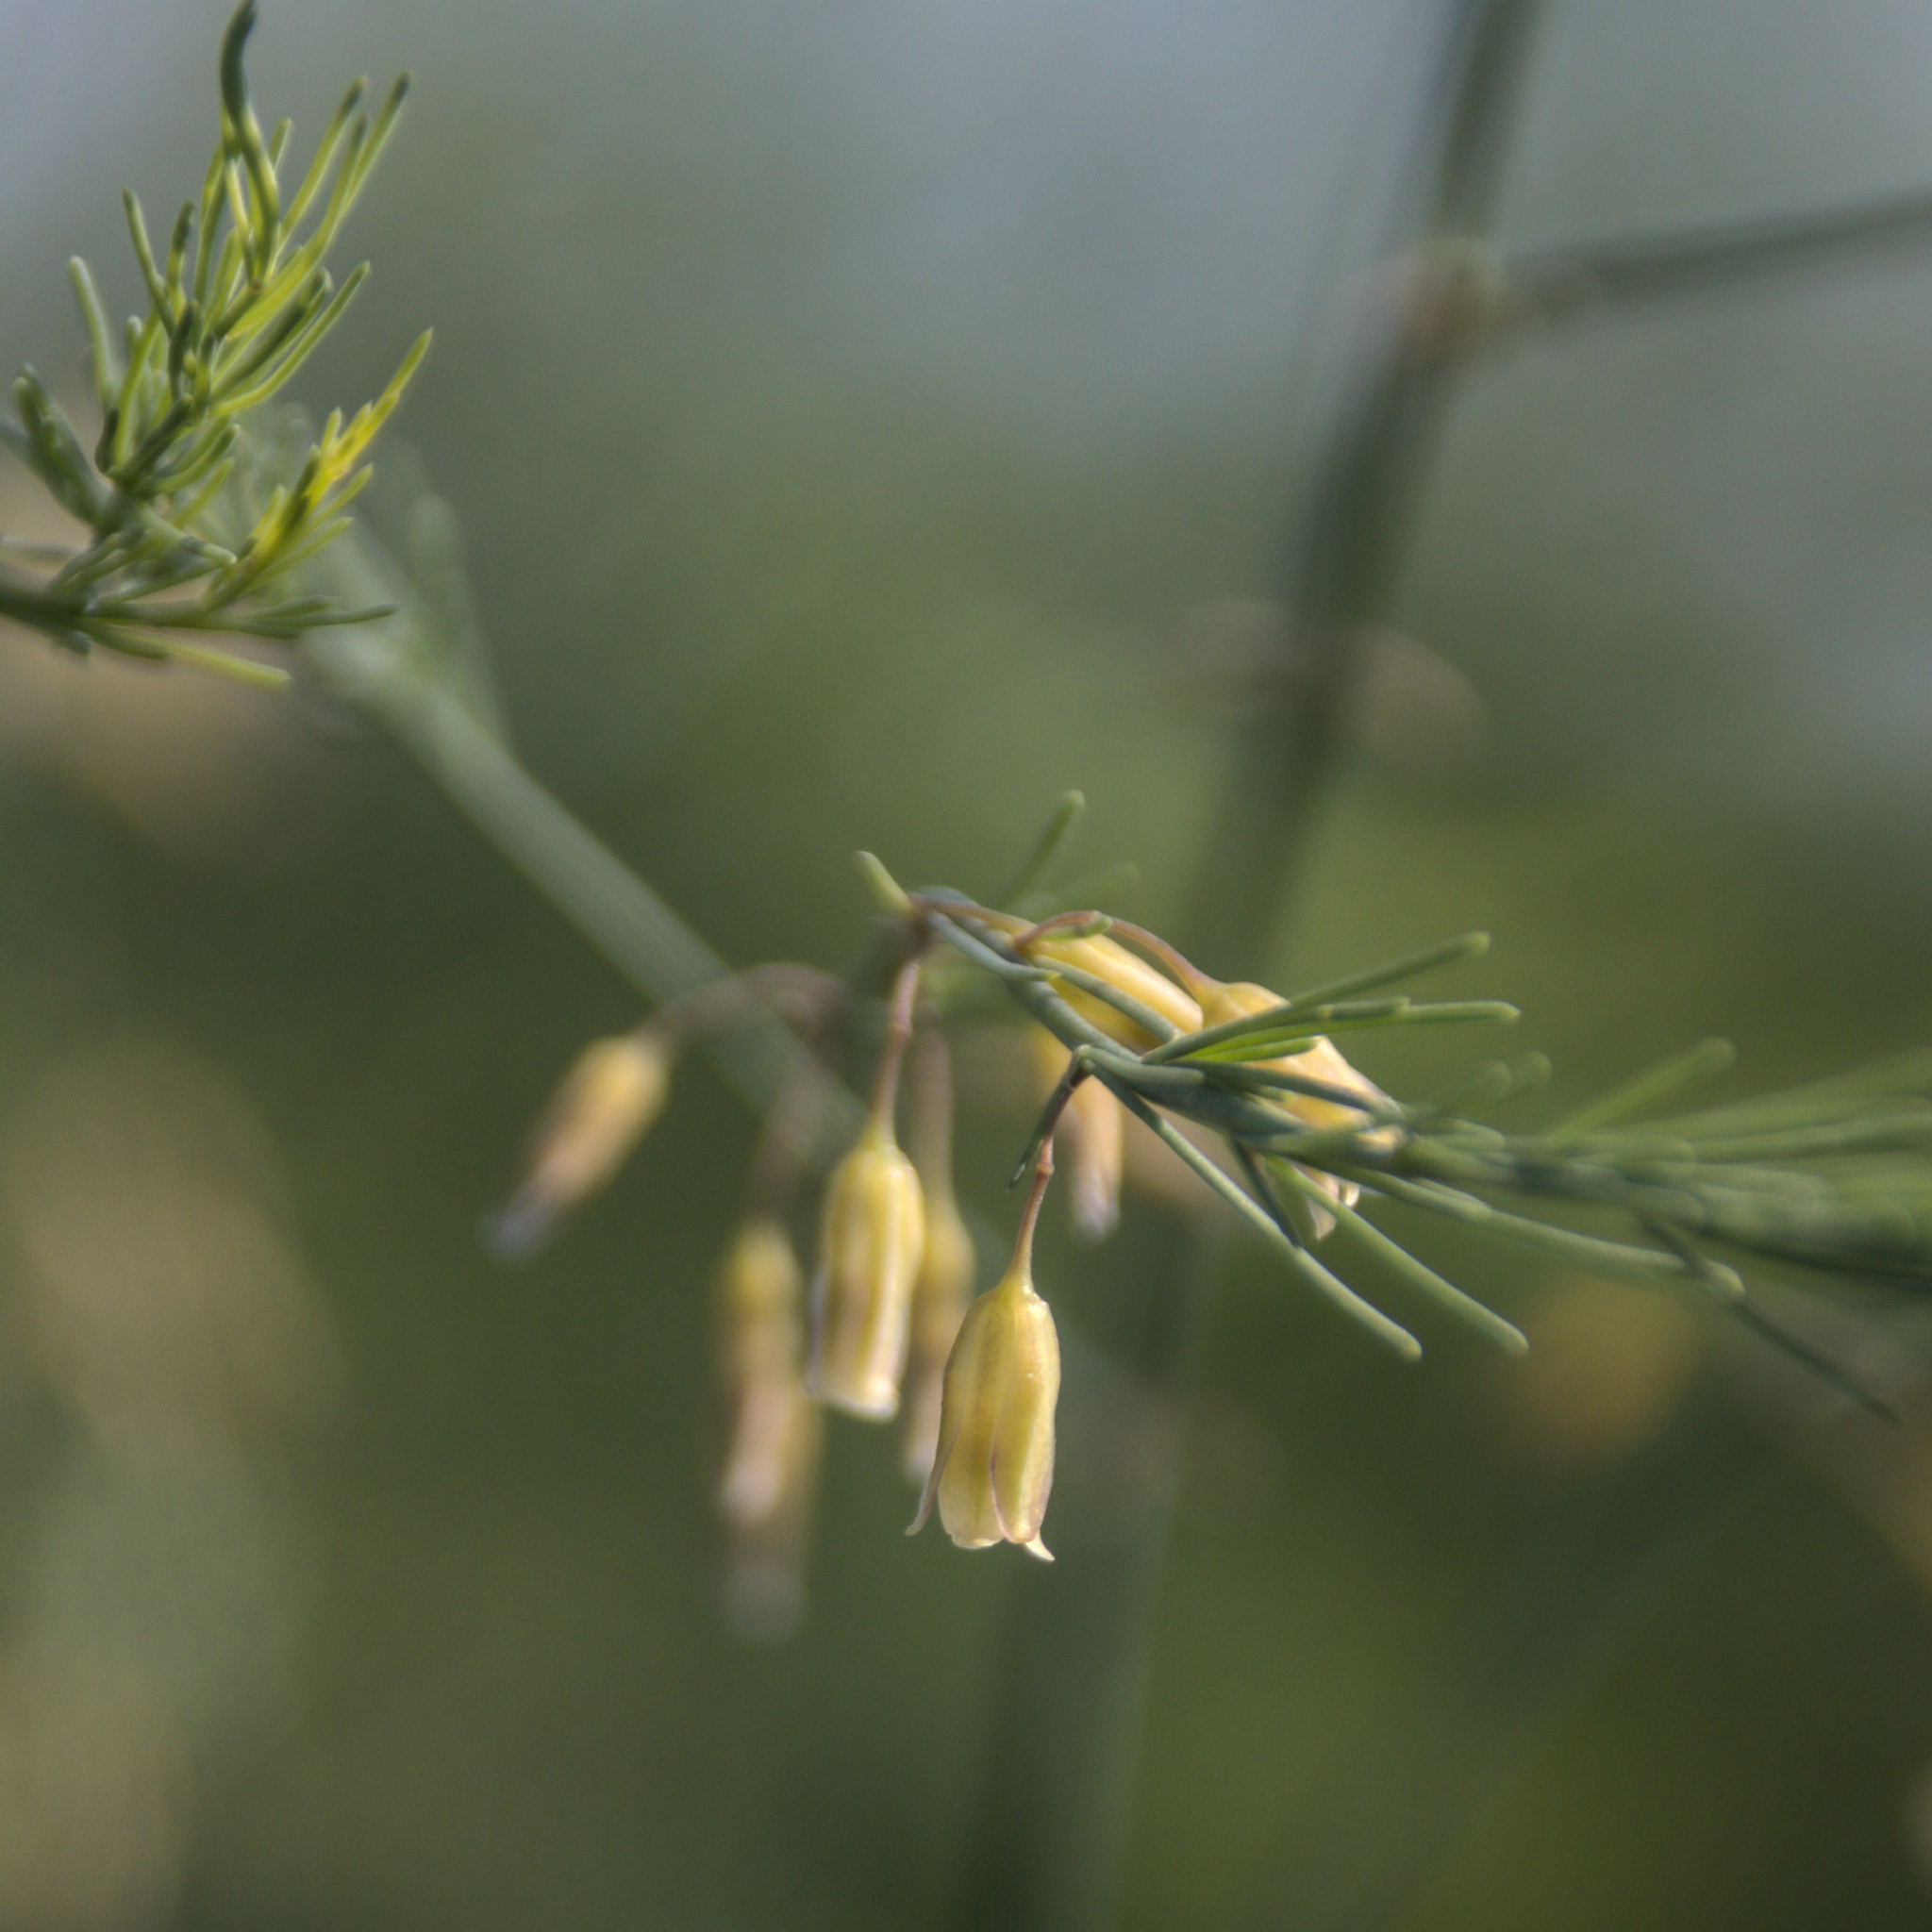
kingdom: Plantae
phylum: Tracheophyta
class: Liliopsida
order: Asparagales
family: Asparagaceae
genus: Asparagus
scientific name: Asparagus officinalis
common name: Garden asparagus
